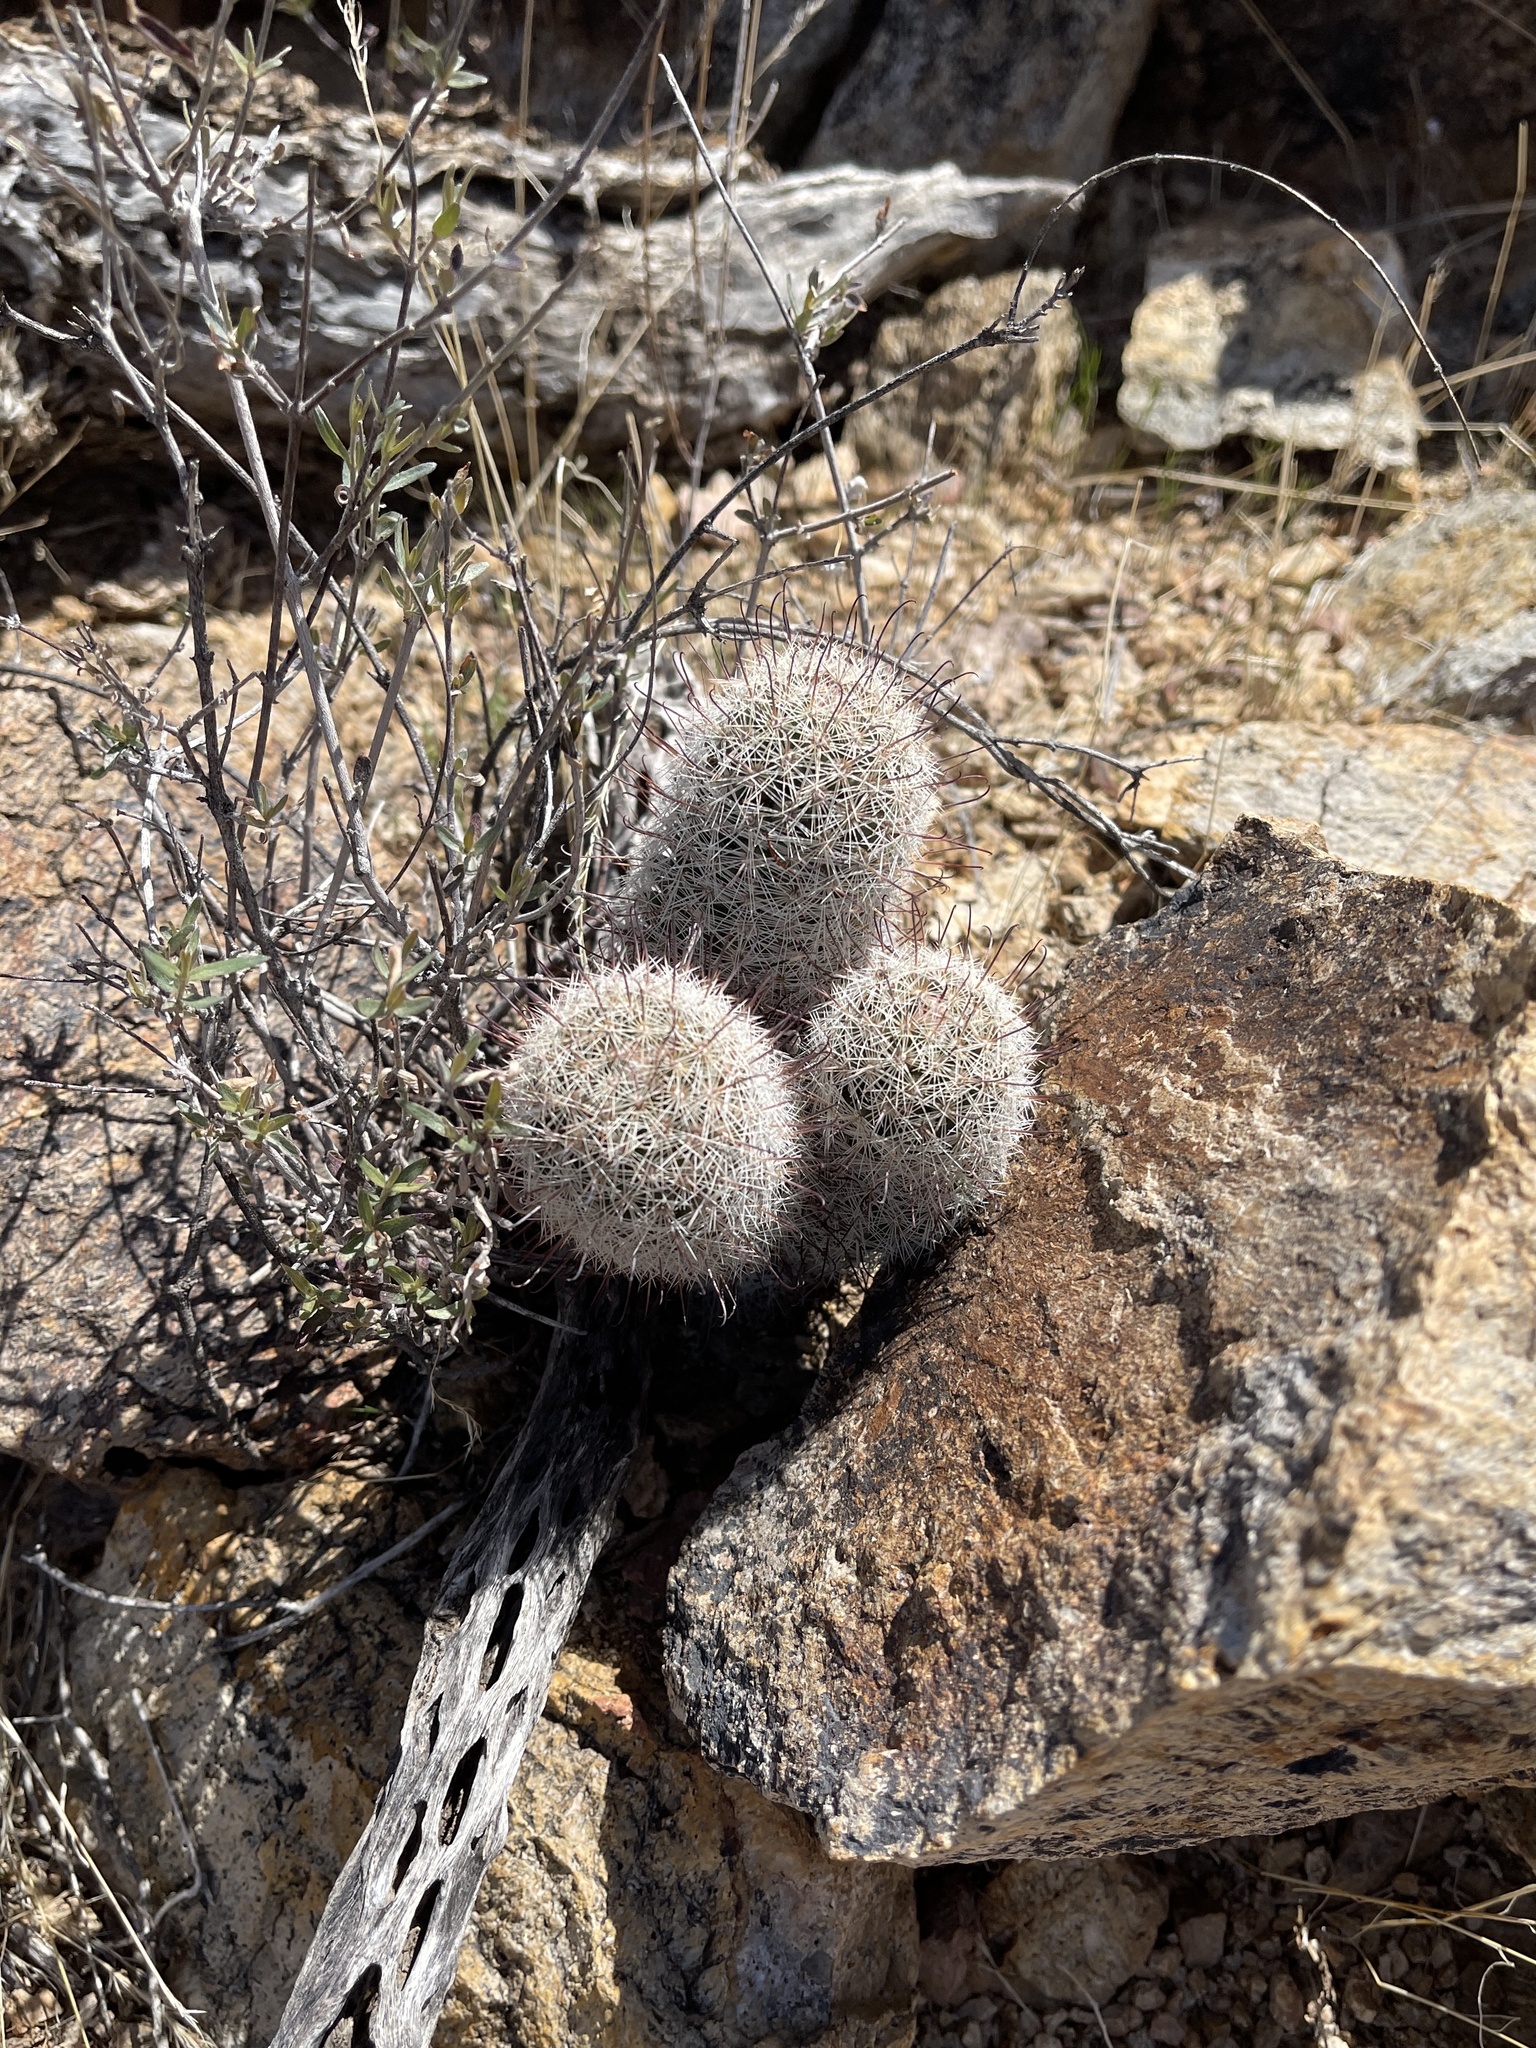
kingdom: Plantae
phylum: Tracheophyta
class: Magnoliopsida
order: Caryophyllales
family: Cactaceae
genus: Cochemiea
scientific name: Cochemiea grahamii
